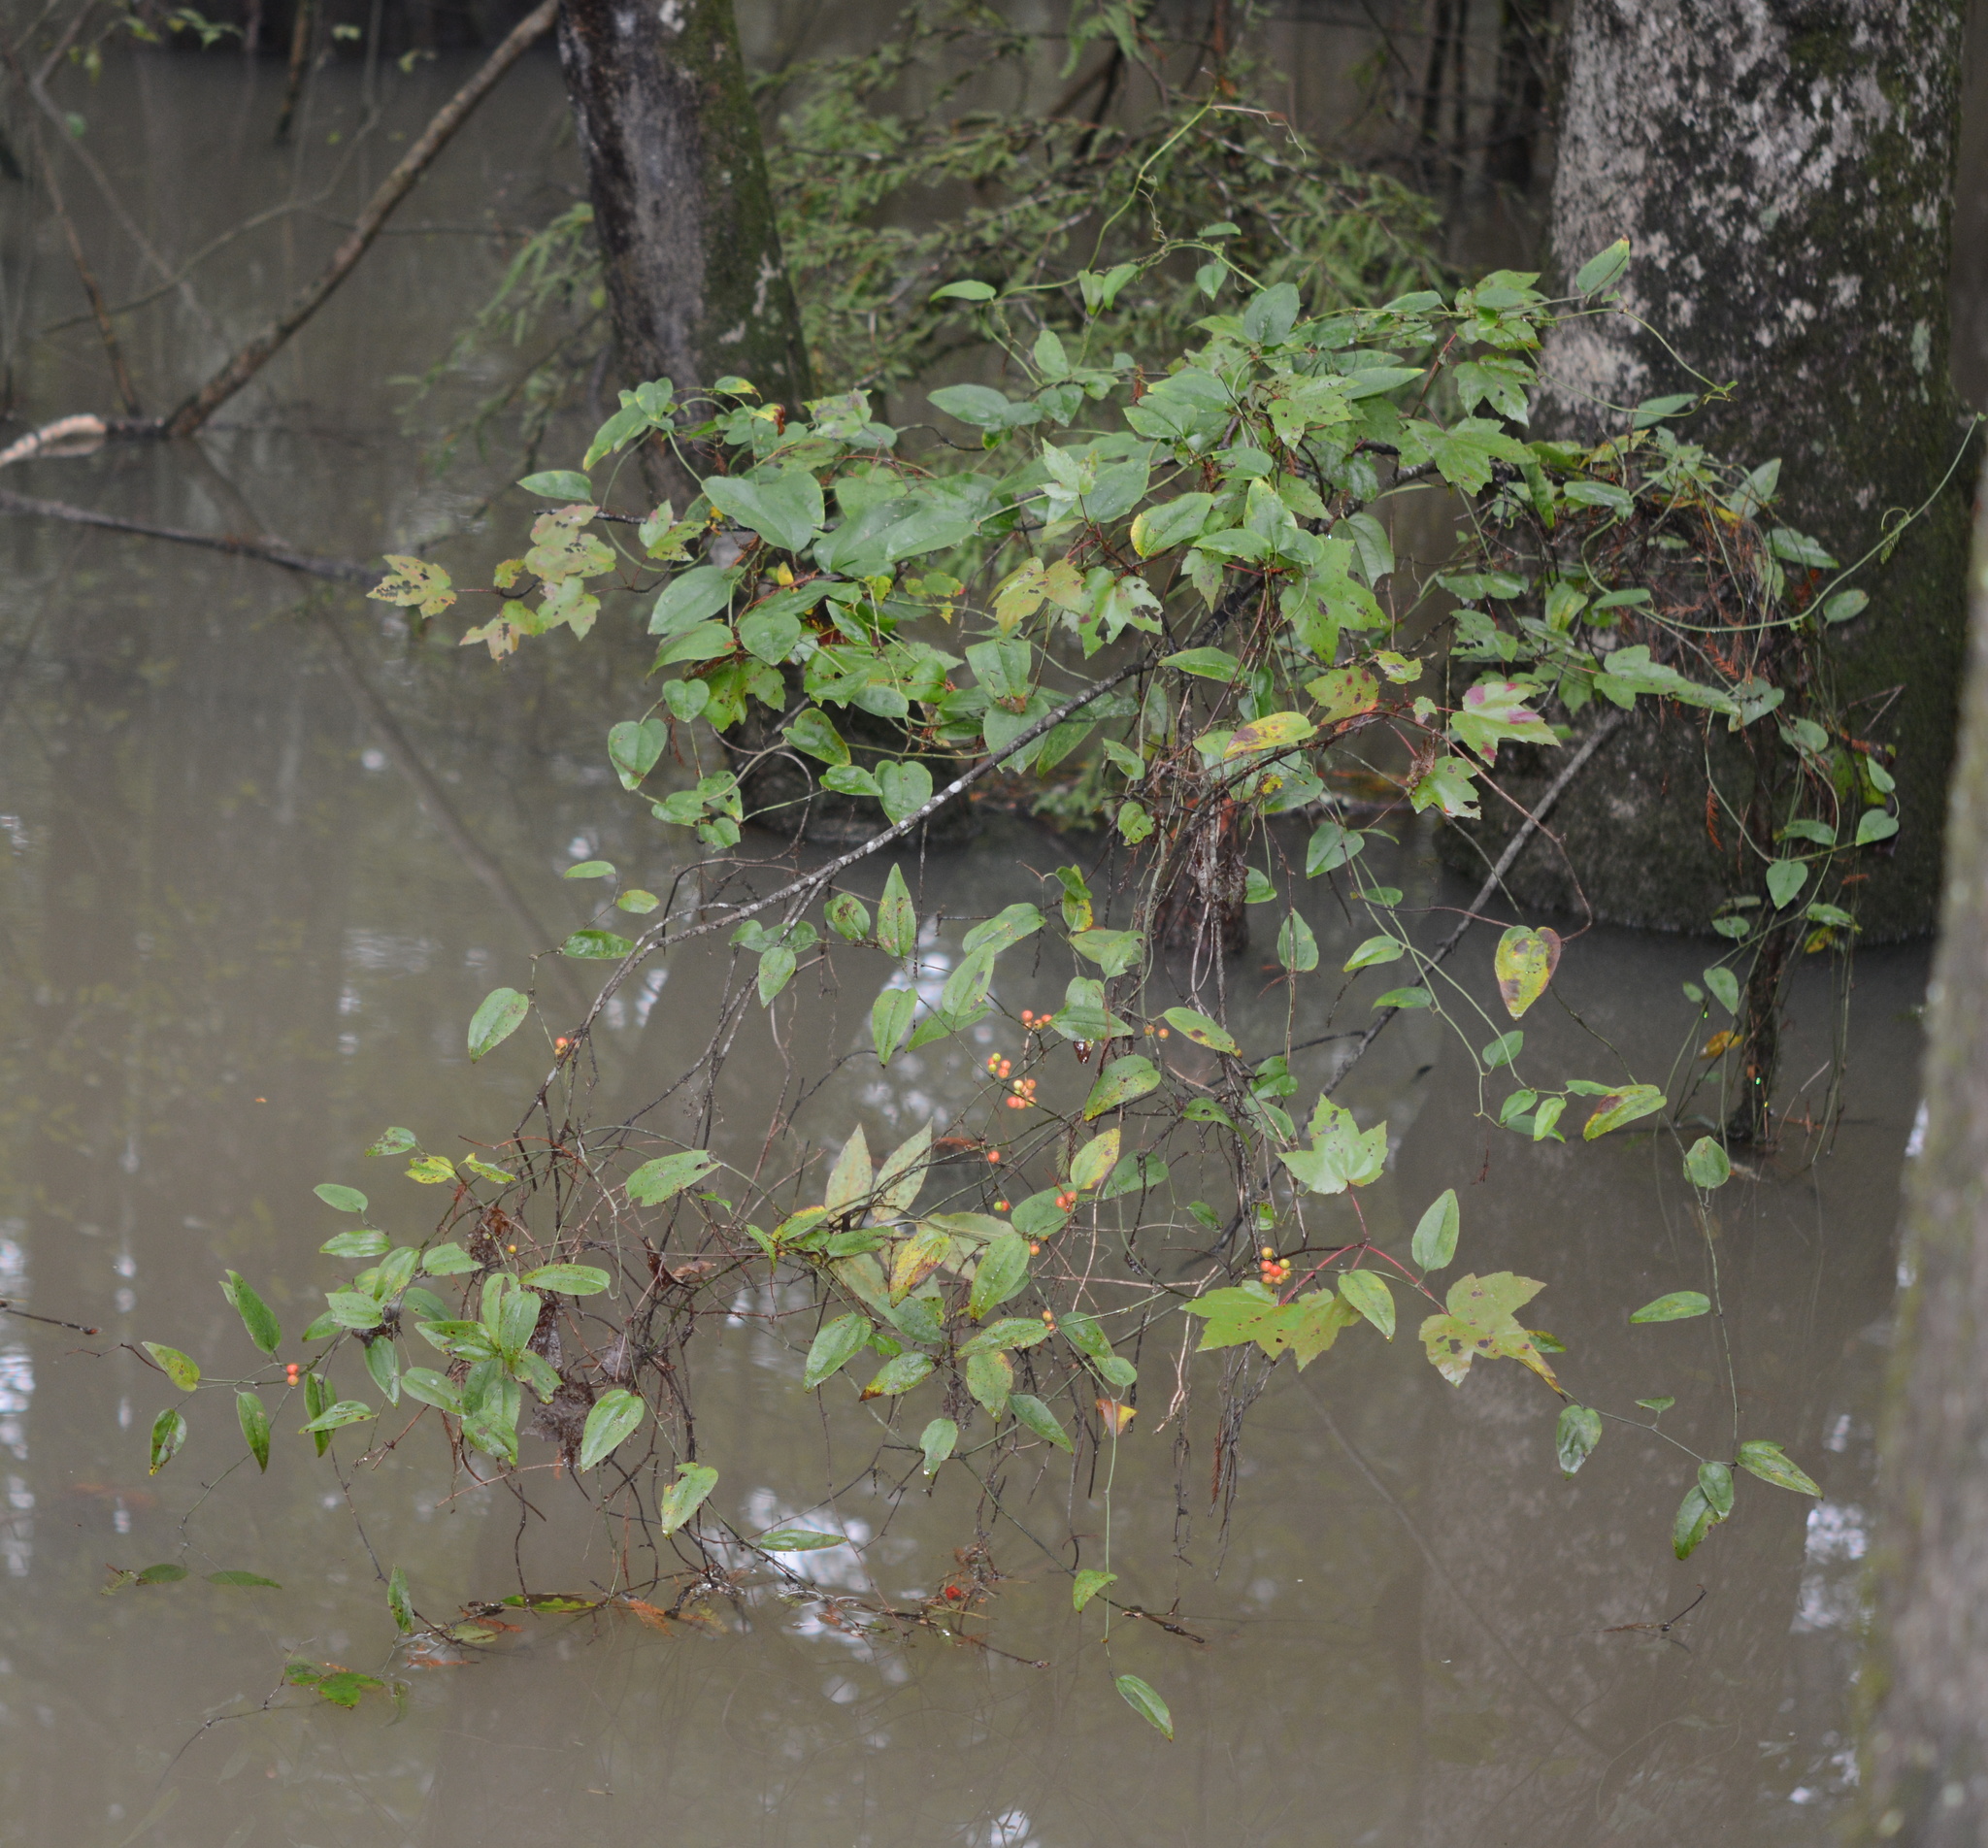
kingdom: Plantae
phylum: Tracheophyta
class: Liliopsida
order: Liliales
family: Smilacaceae
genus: Smilax
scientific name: Smilax walteri
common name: Coral greenbrier
